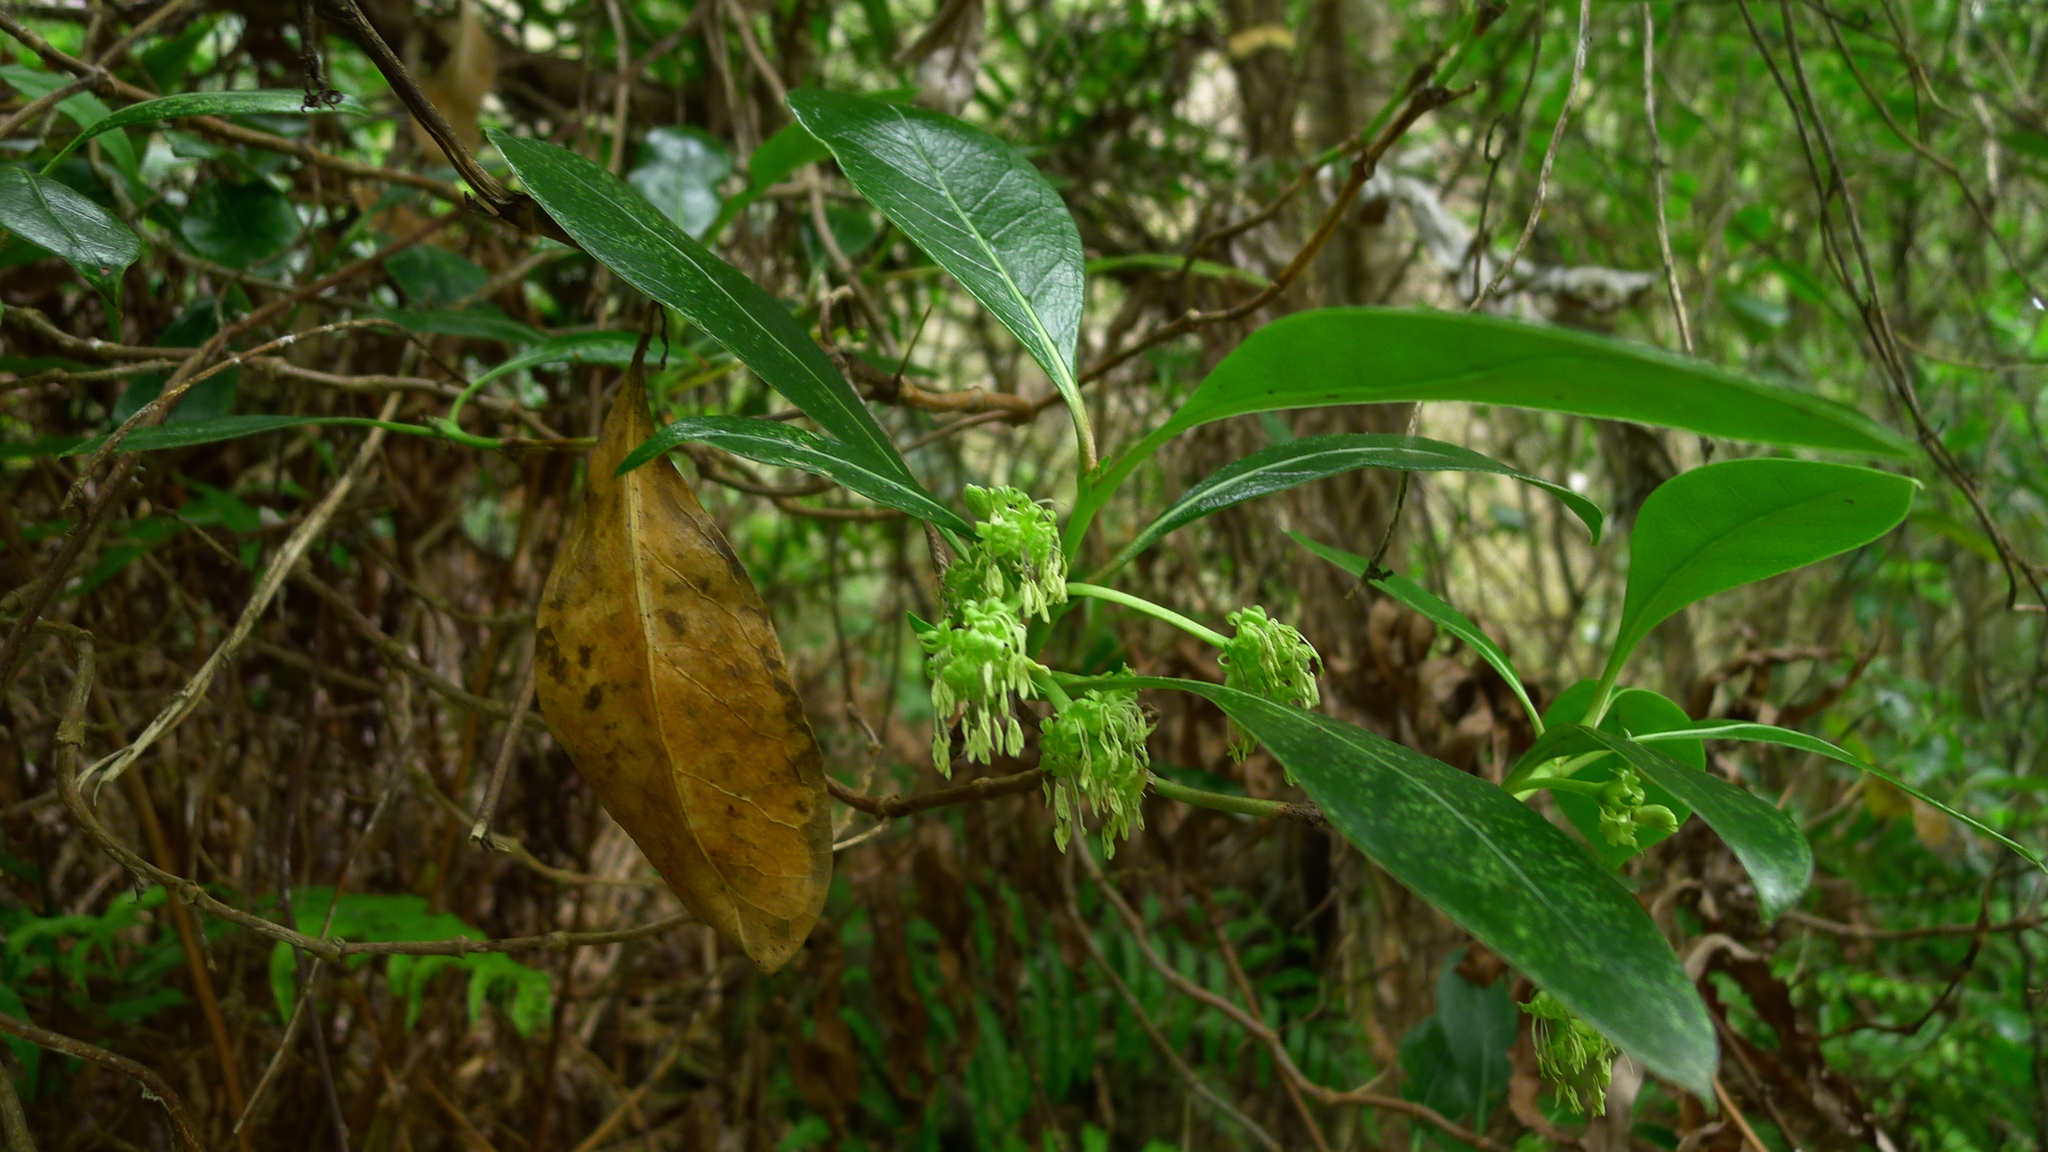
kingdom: Plantae
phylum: Tracheophyta
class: Magnoliopsida
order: Gentianales
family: Rubiaceae
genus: Coprosma
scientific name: Coprosma lucida
